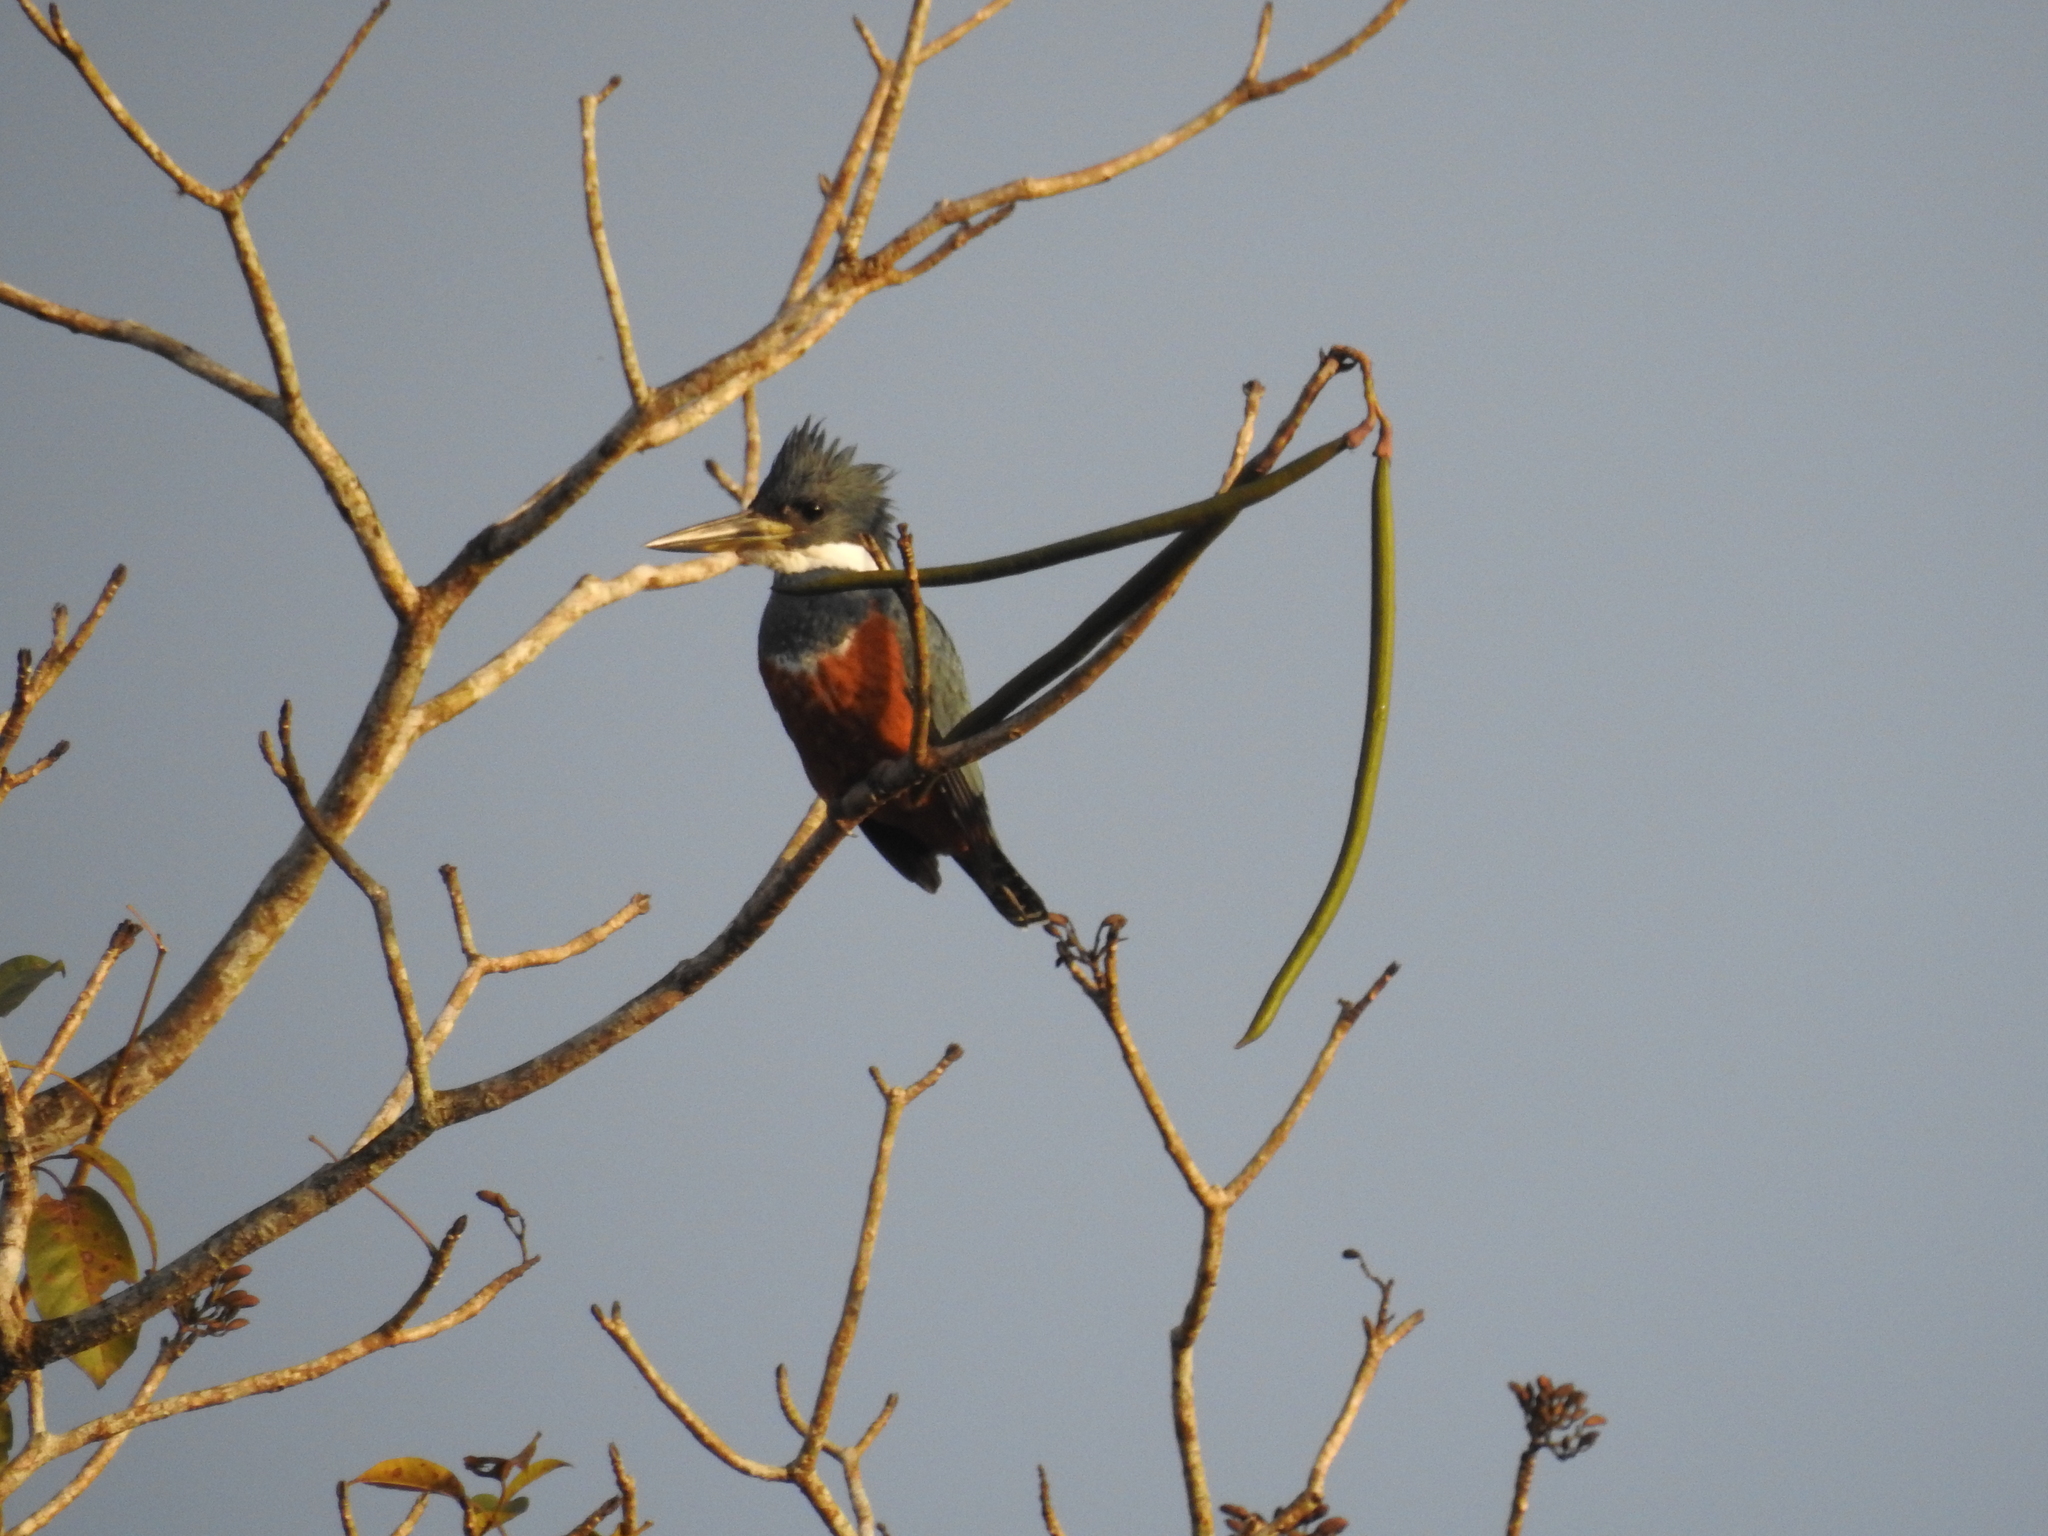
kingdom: Animalia
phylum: Chordata
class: Aves
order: Coraciiformes
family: Alcedinidae
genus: Megaceryle
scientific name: Megaceryle torquata
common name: Ringed kingfisher
